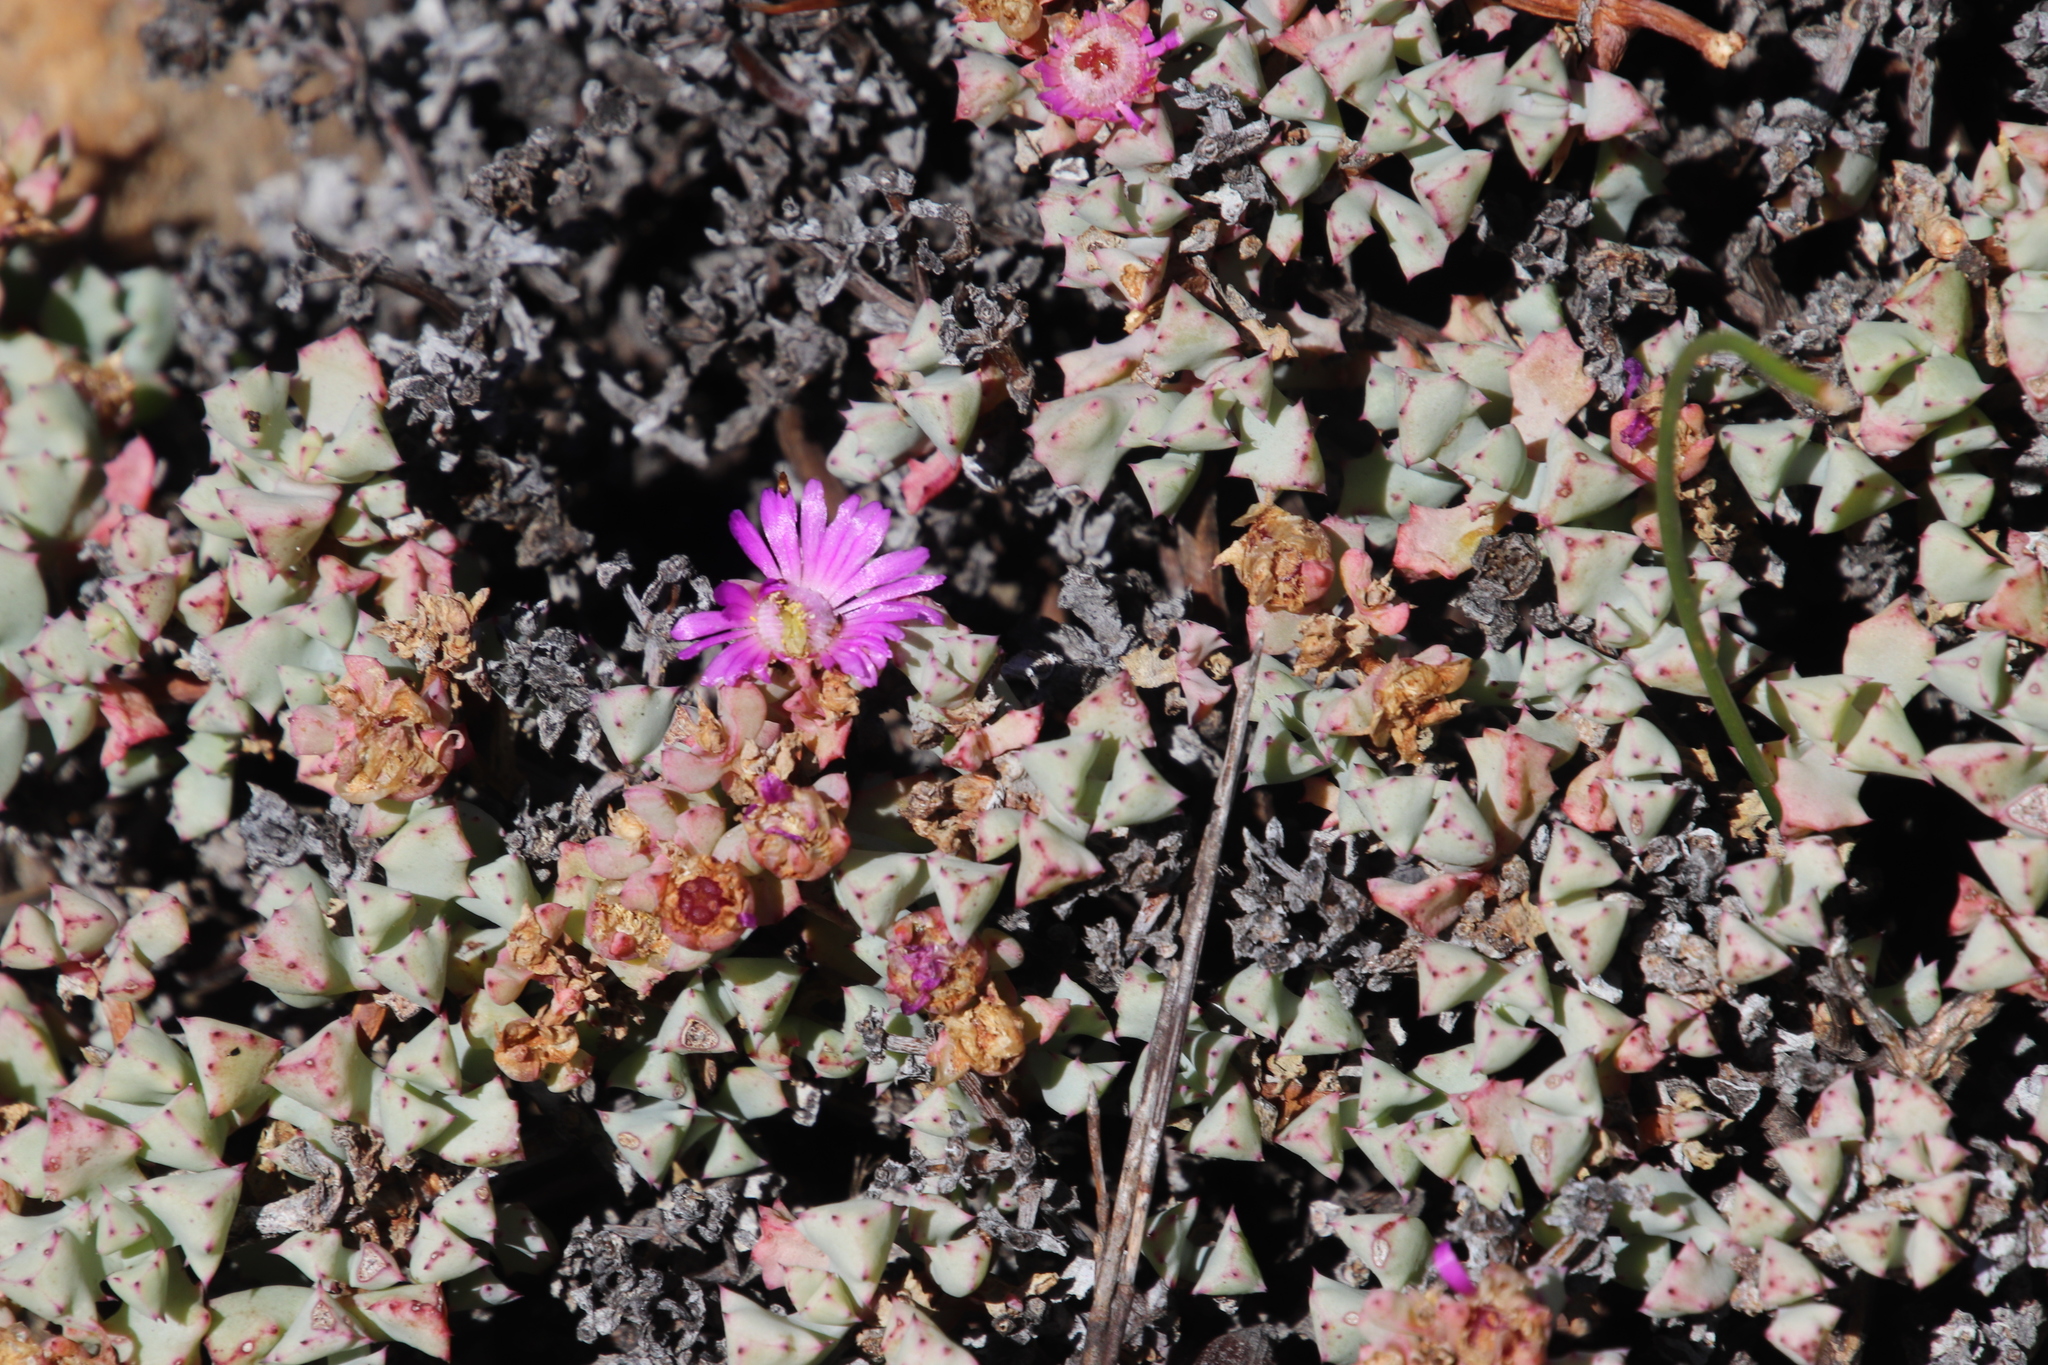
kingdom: Plantae
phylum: Tracheophyta
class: Magnoliopsida
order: Caryophyllales
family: Aizoaceae
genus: Oscularia
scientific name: Oscularia deltoides
